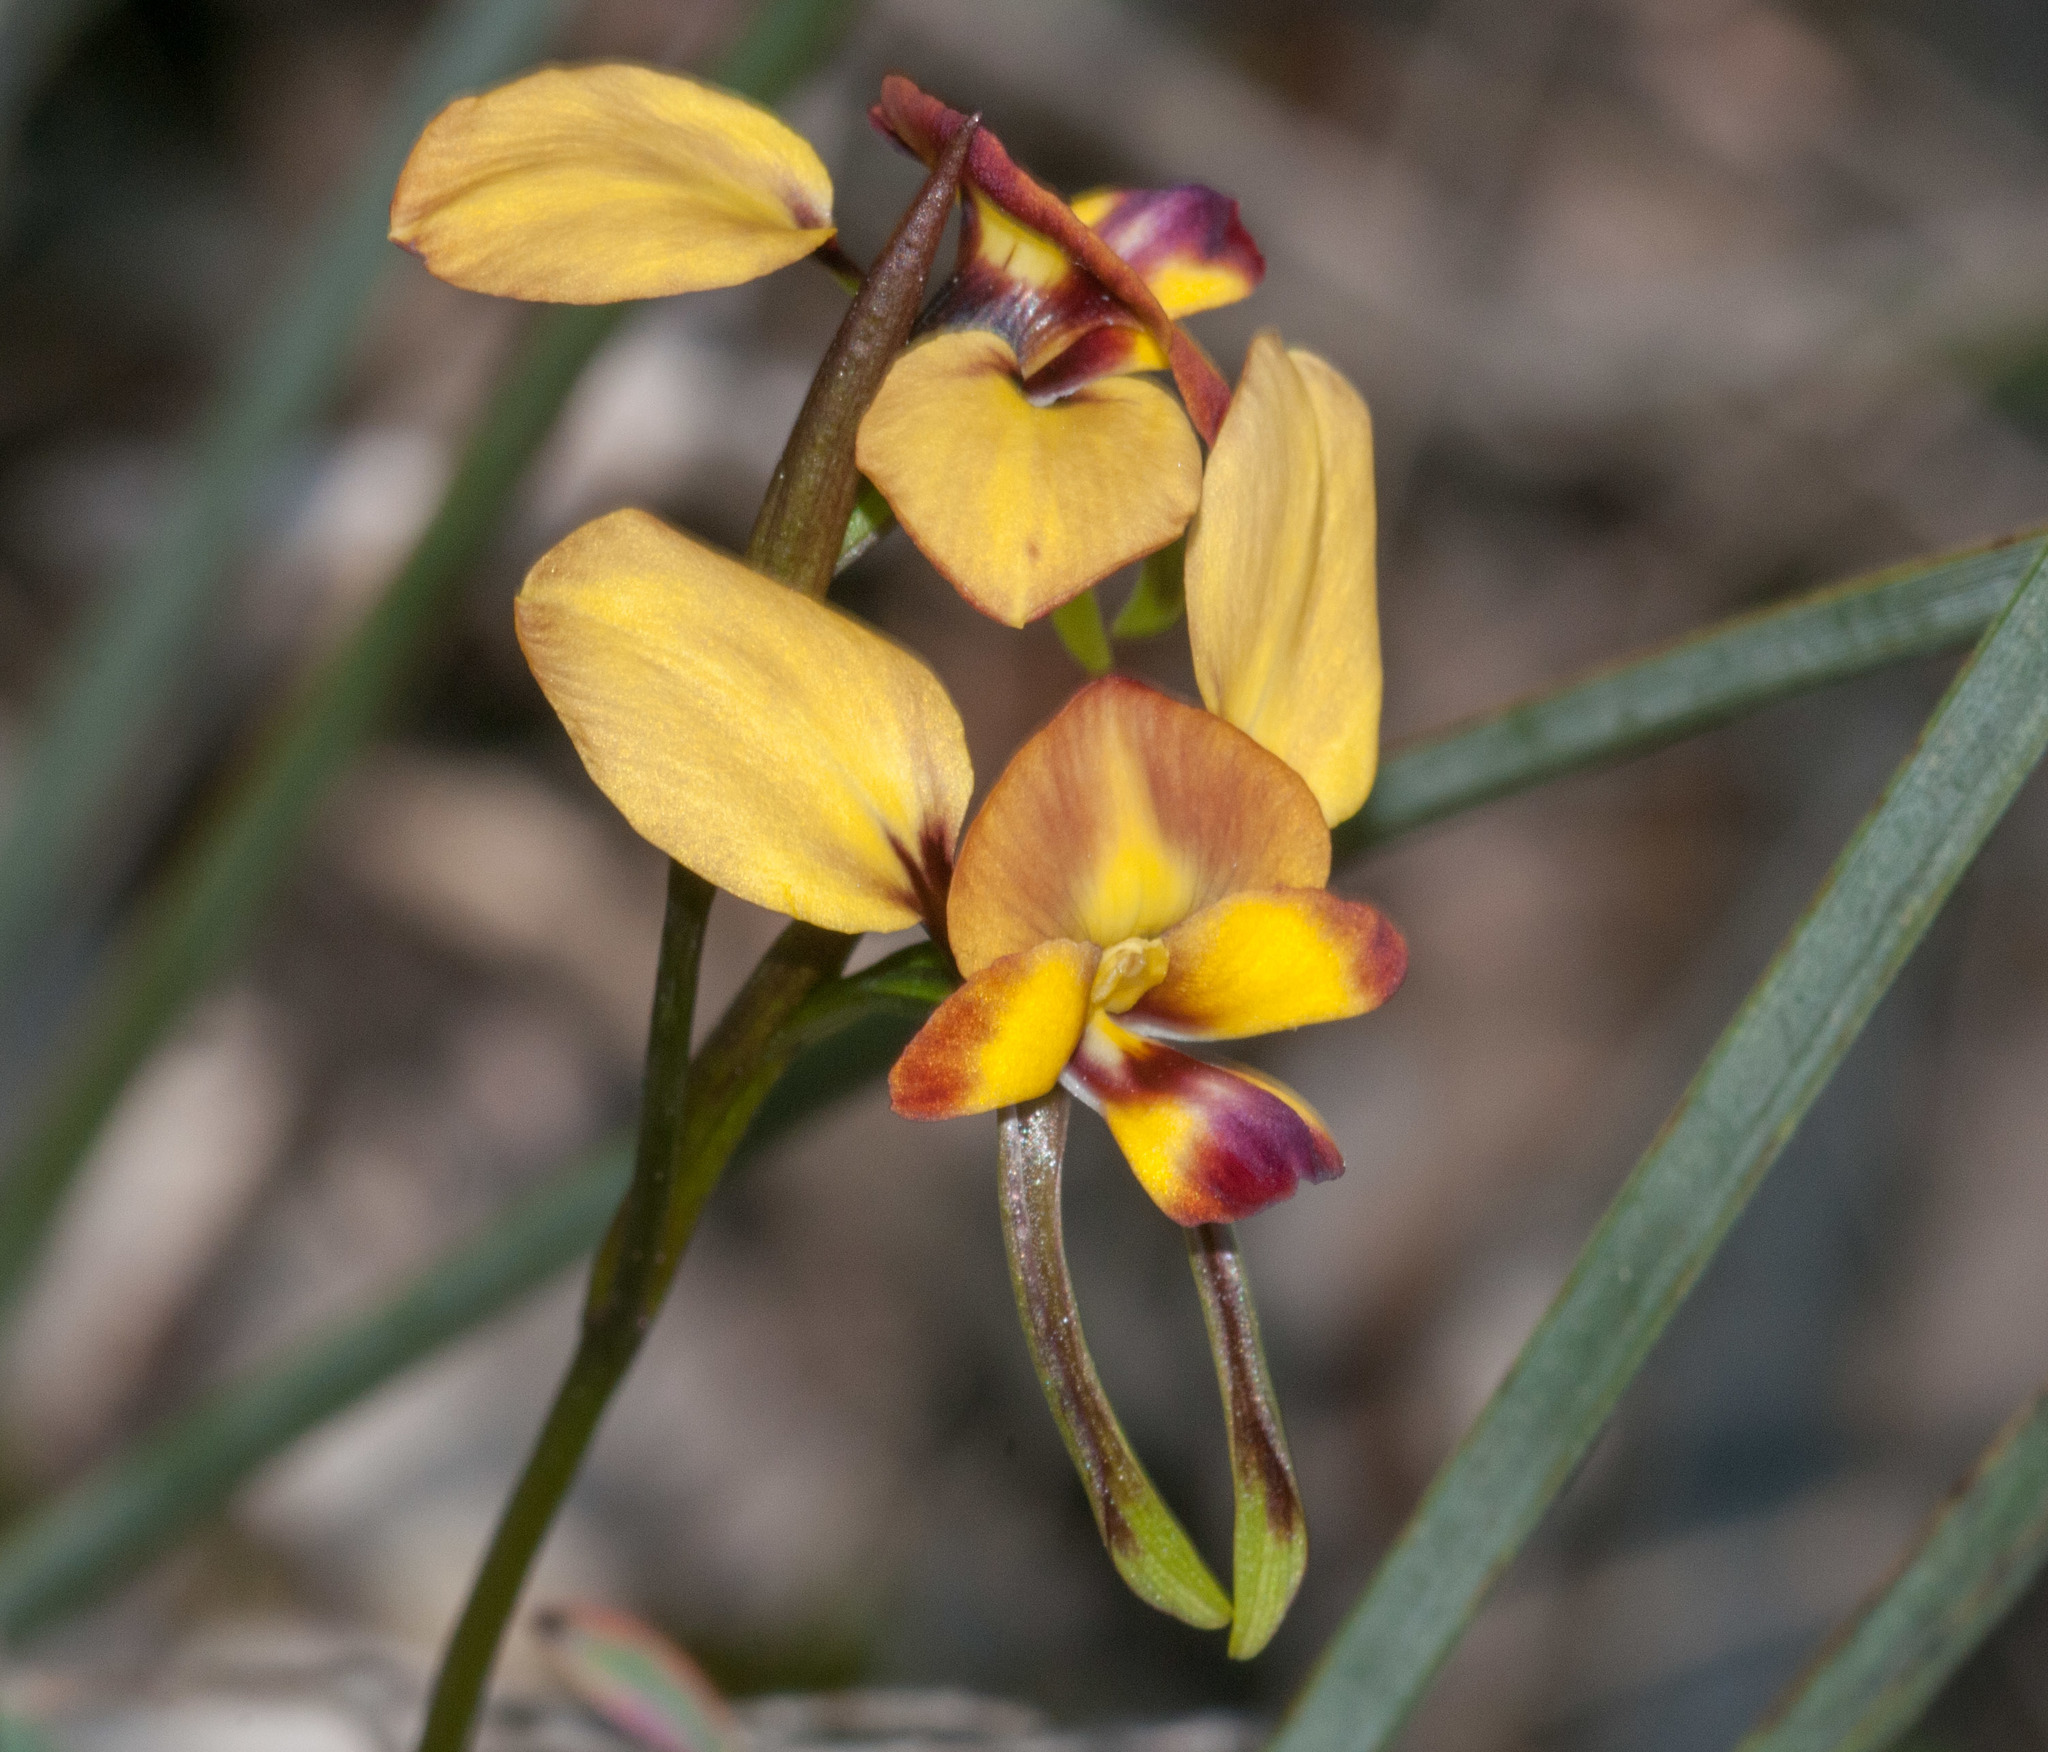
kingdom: Plantae
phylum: Tracheophyta
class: Liliopsida
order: Asparagales
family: Orchidaceae
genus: Diuris
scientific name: Diuris orientis
